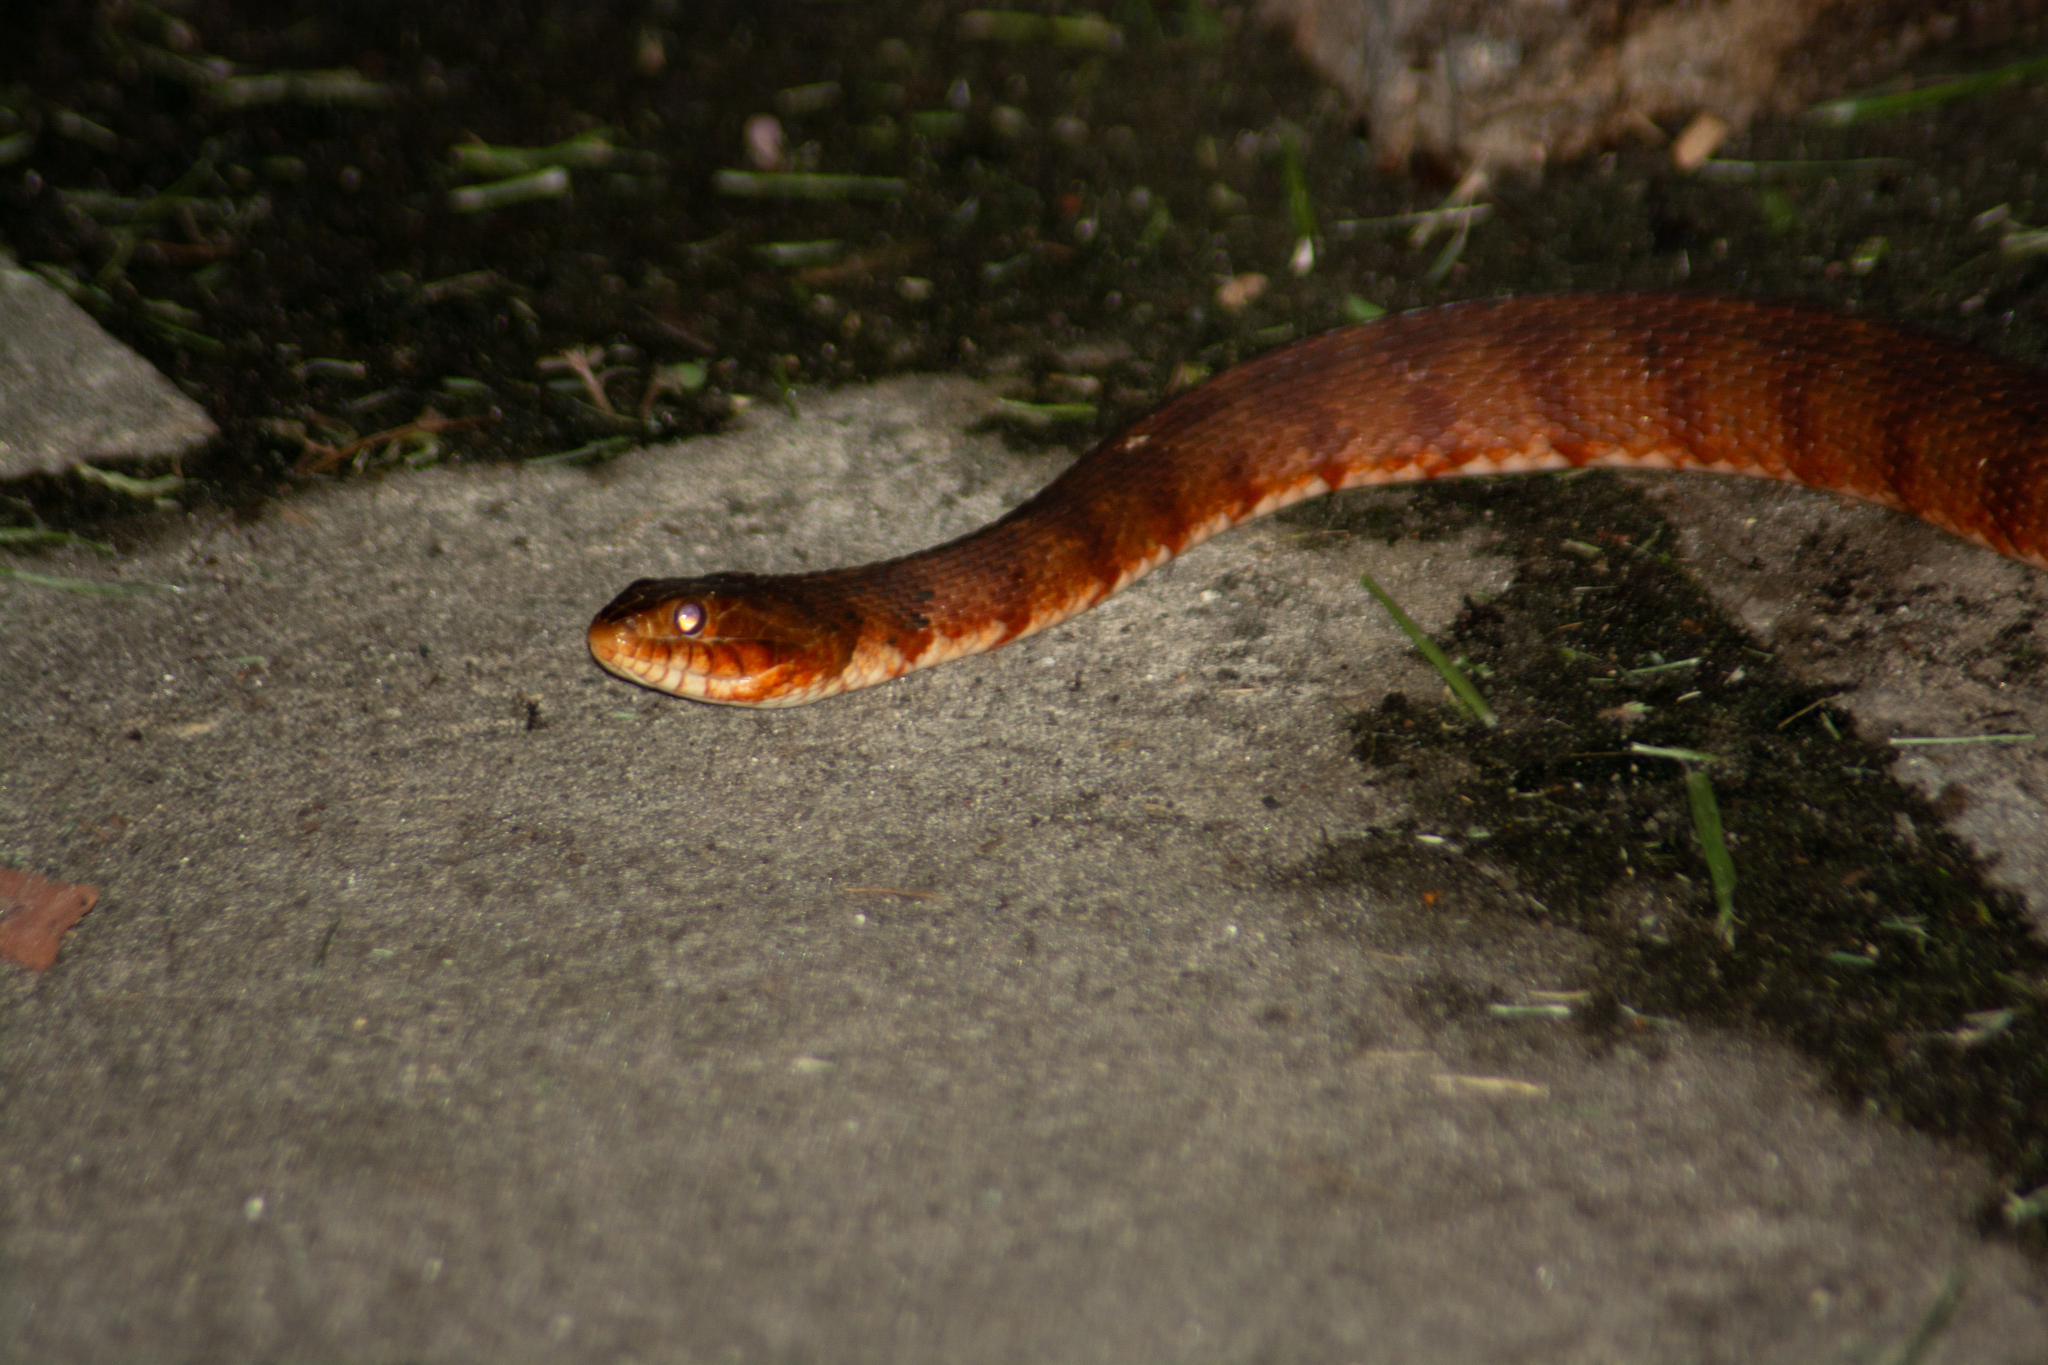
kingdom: Animalia
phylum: Chordata
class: Squamata
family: Colubridae
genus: Nerodia
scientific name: Nerodia fasciata
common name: Southern water snake
